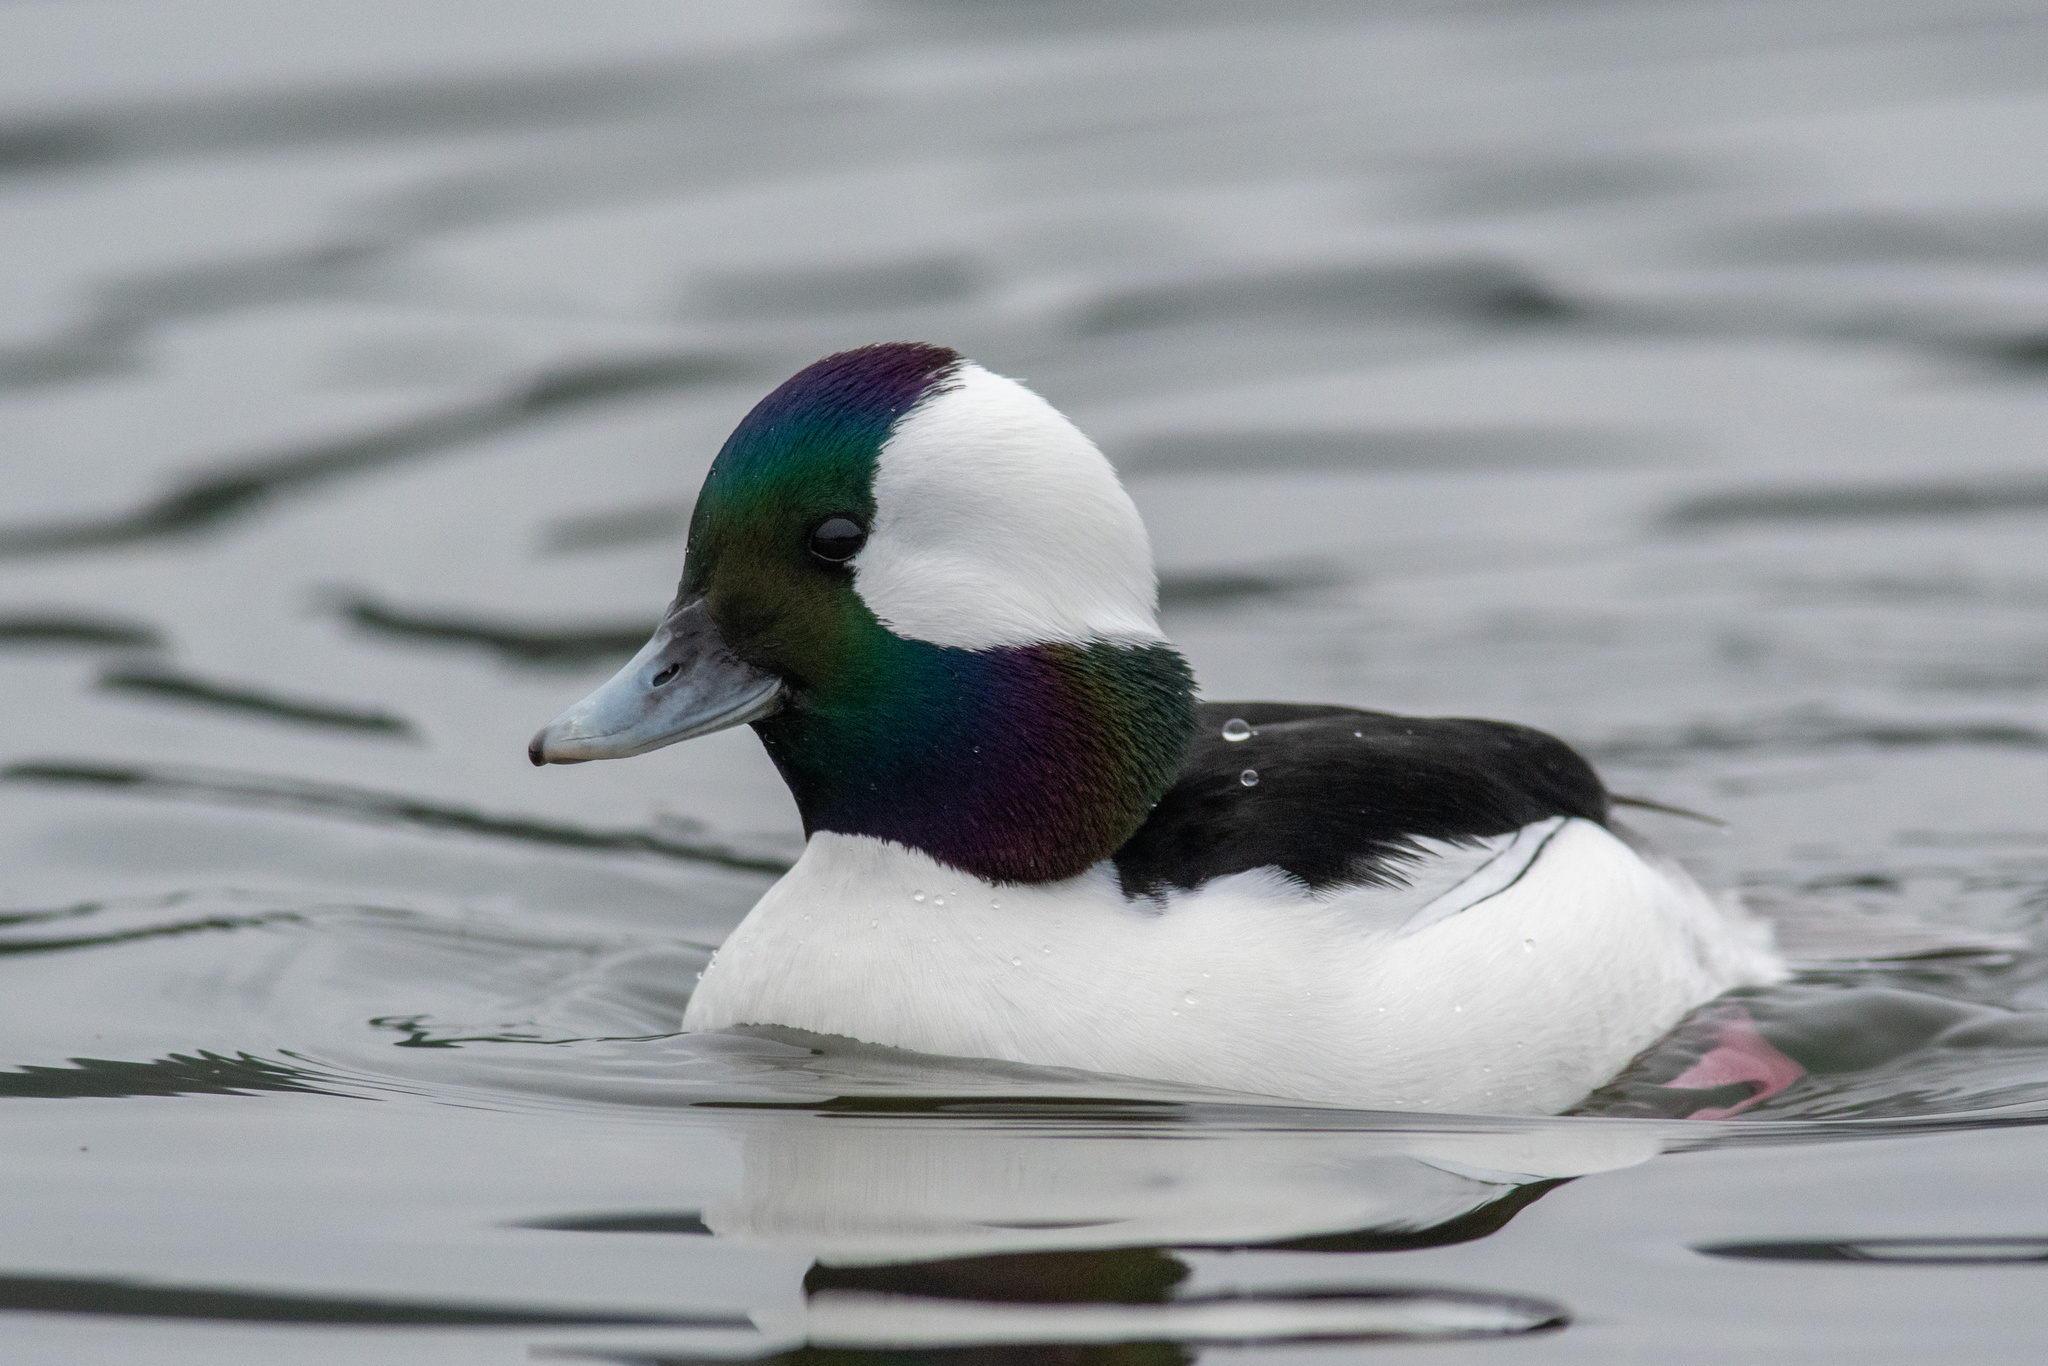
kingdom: Animalia
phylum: Chordata
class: Aves
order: Anseriformes
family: Anatidae
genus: Bucephala
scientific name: Bucephala albeola
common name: Bufflehead
